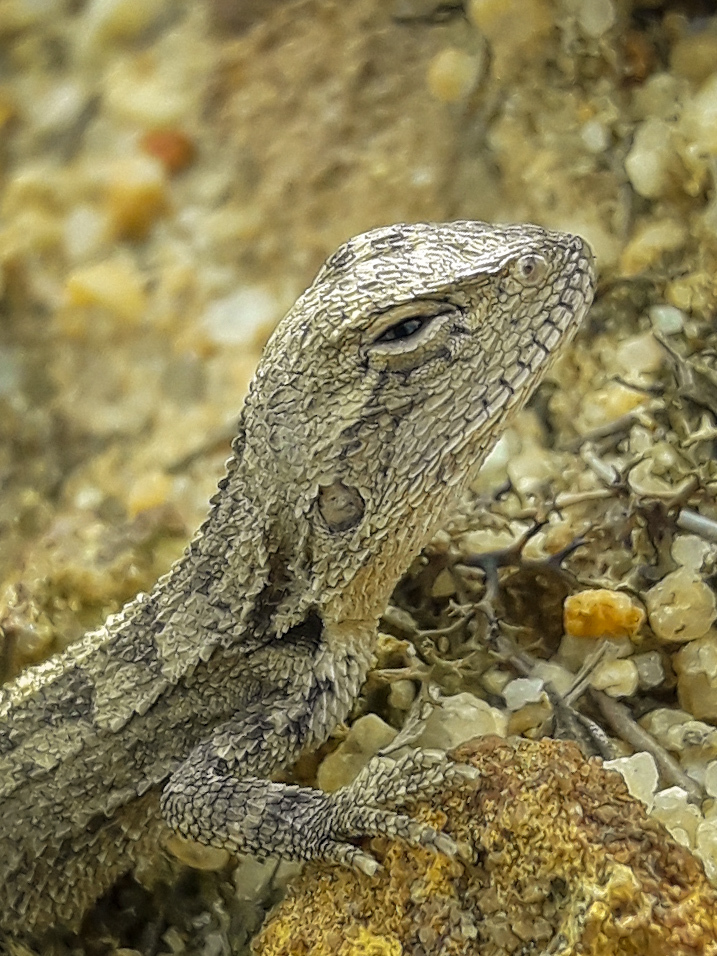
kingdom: Animalia
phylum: Chordata
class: Squamata
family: Agamidae
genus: Amphibolurus
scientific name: Amphibolurus muricatus
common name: Jacky lizard
